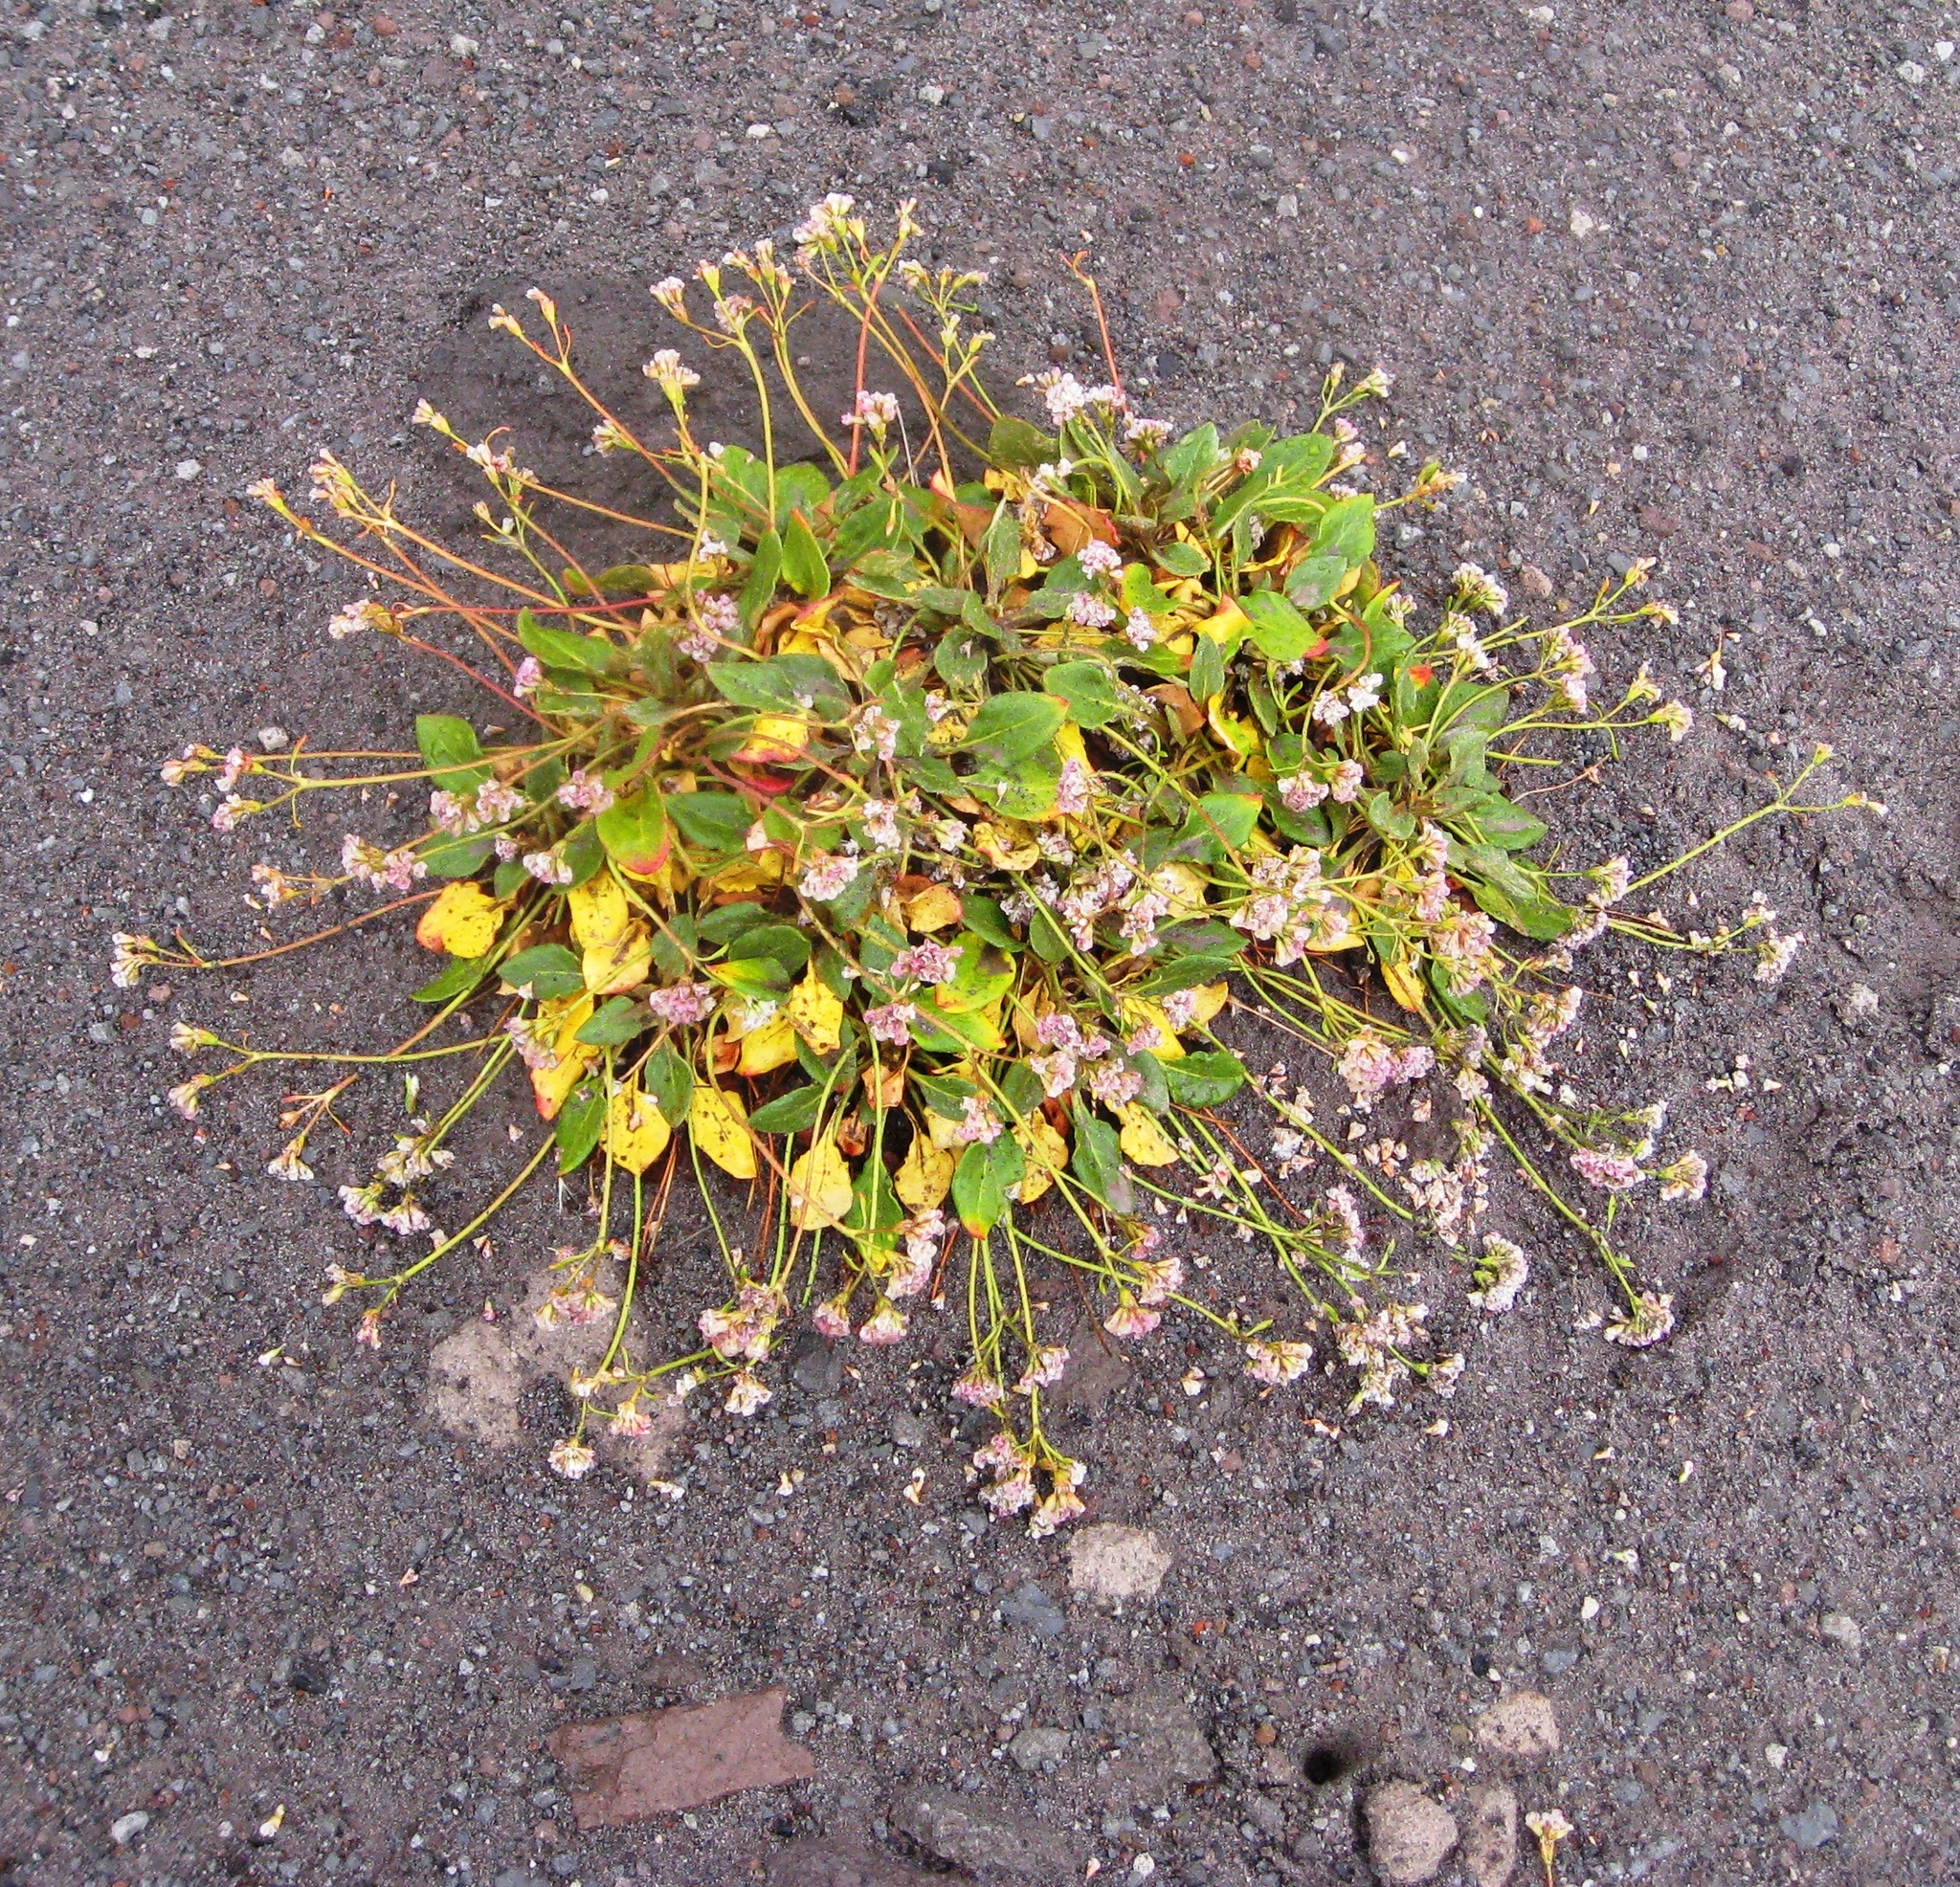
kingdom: Plantae
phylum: Tracheophyta
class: Magnoliopsida
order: Caryophyllales
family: Polygonaceae
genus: Eriogonum
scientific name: Eriogonum pyrolifolium
